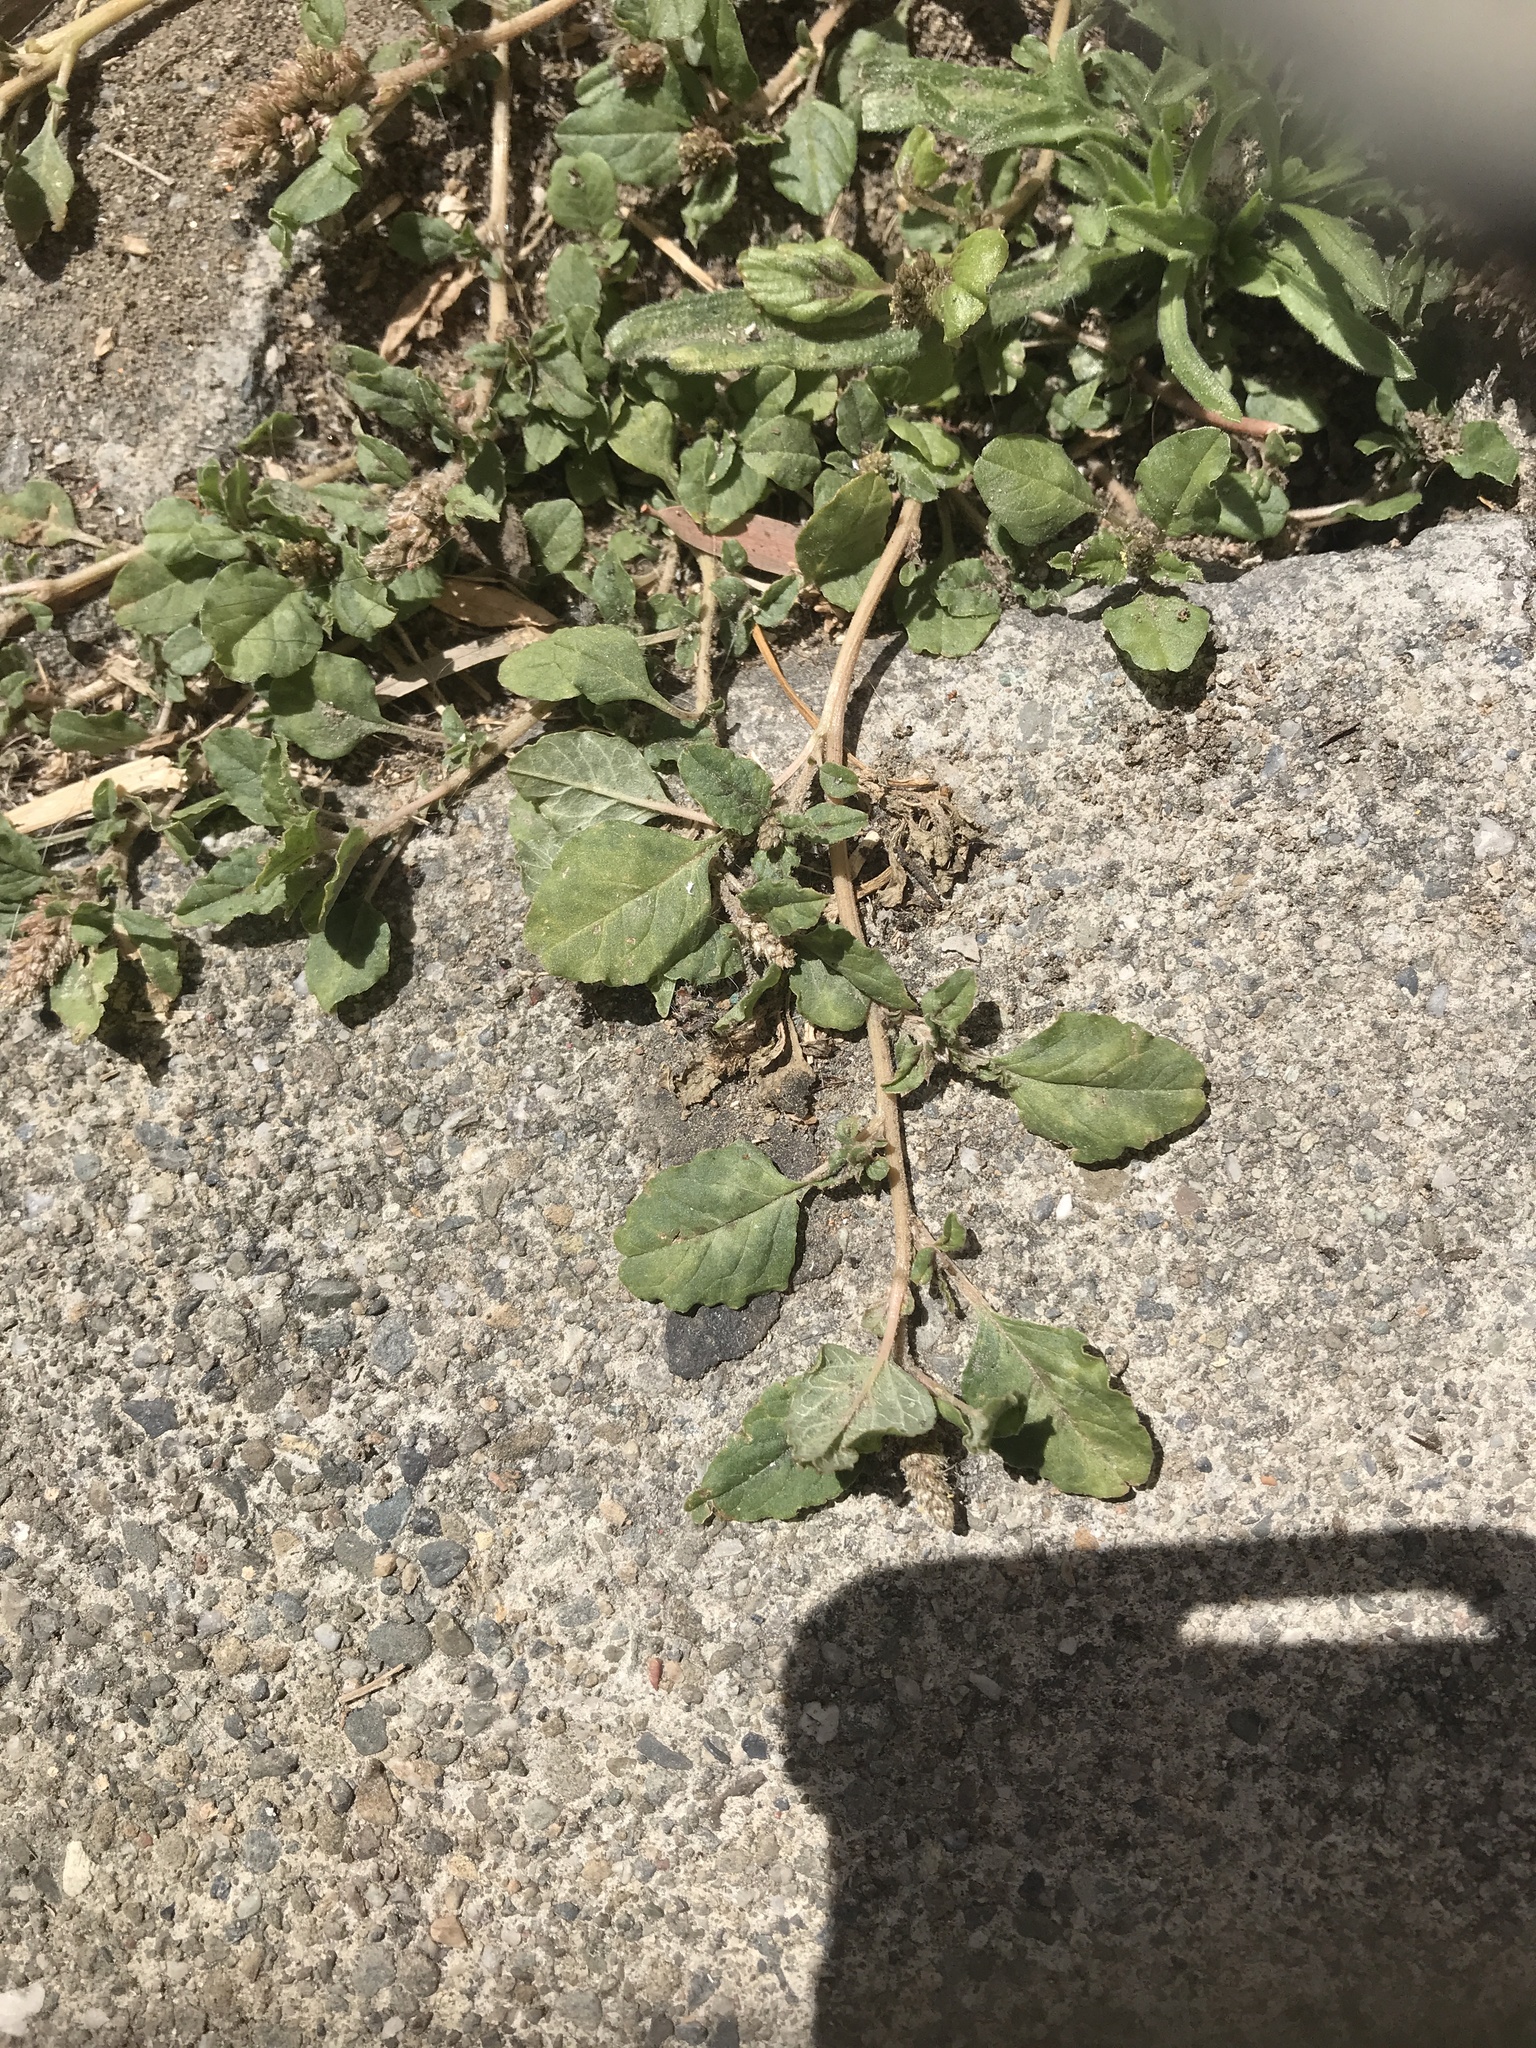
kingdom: Plantae
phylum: Tracheophyta
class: Magnoliopsida
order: Caryophyllales
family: Amaranthaceae
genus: Amaranthus
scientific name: Amaranthus deflexus
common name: Perennial pigweed
